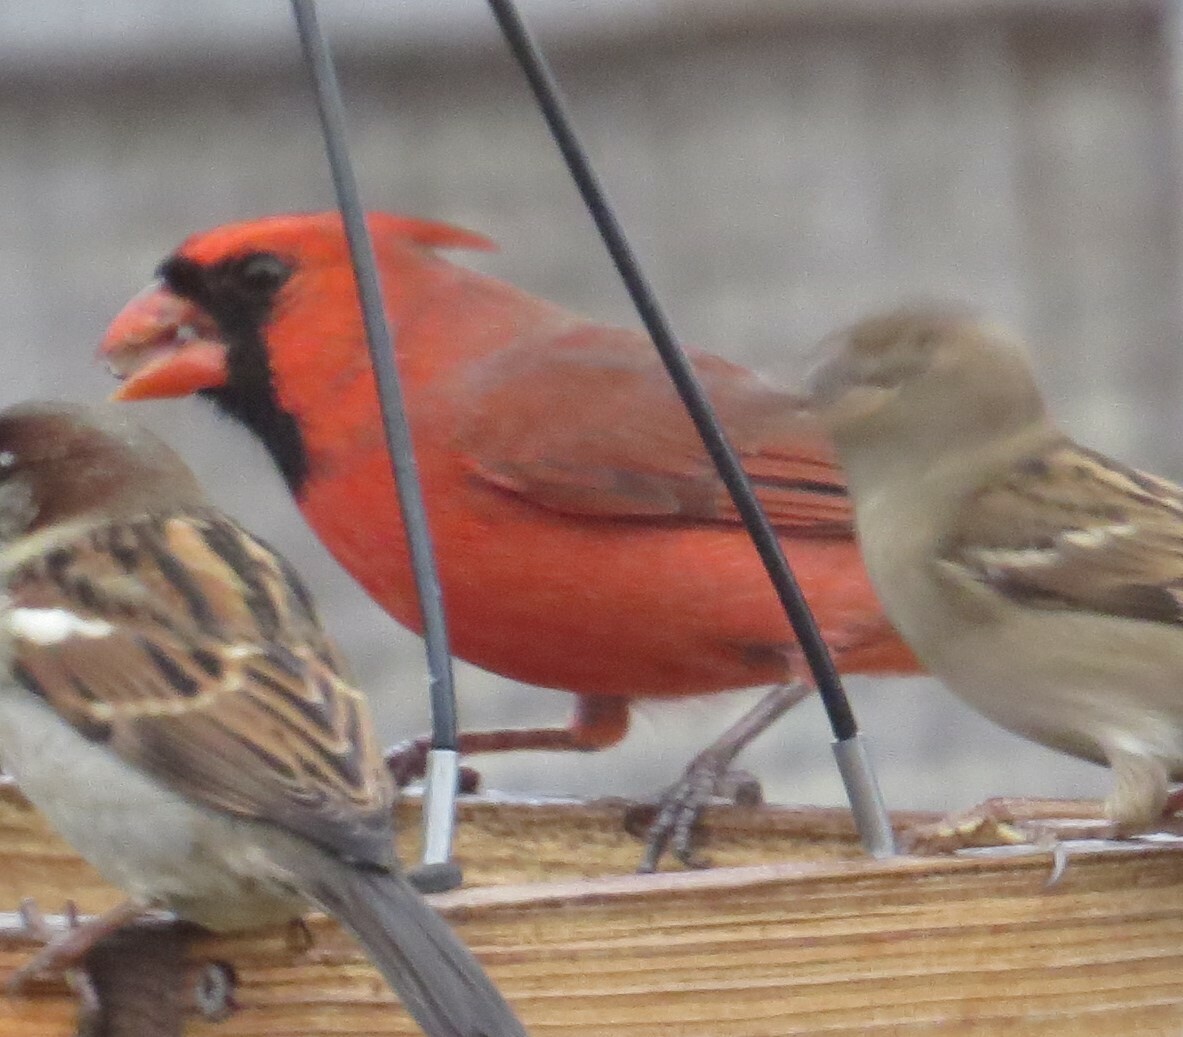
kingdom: Animalia
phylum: Chordata
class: Aves
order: Passeriformes
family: Cardinalidae
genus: Cardinalis
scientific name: Cardinalis cardinalis
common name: Northern cardinal
